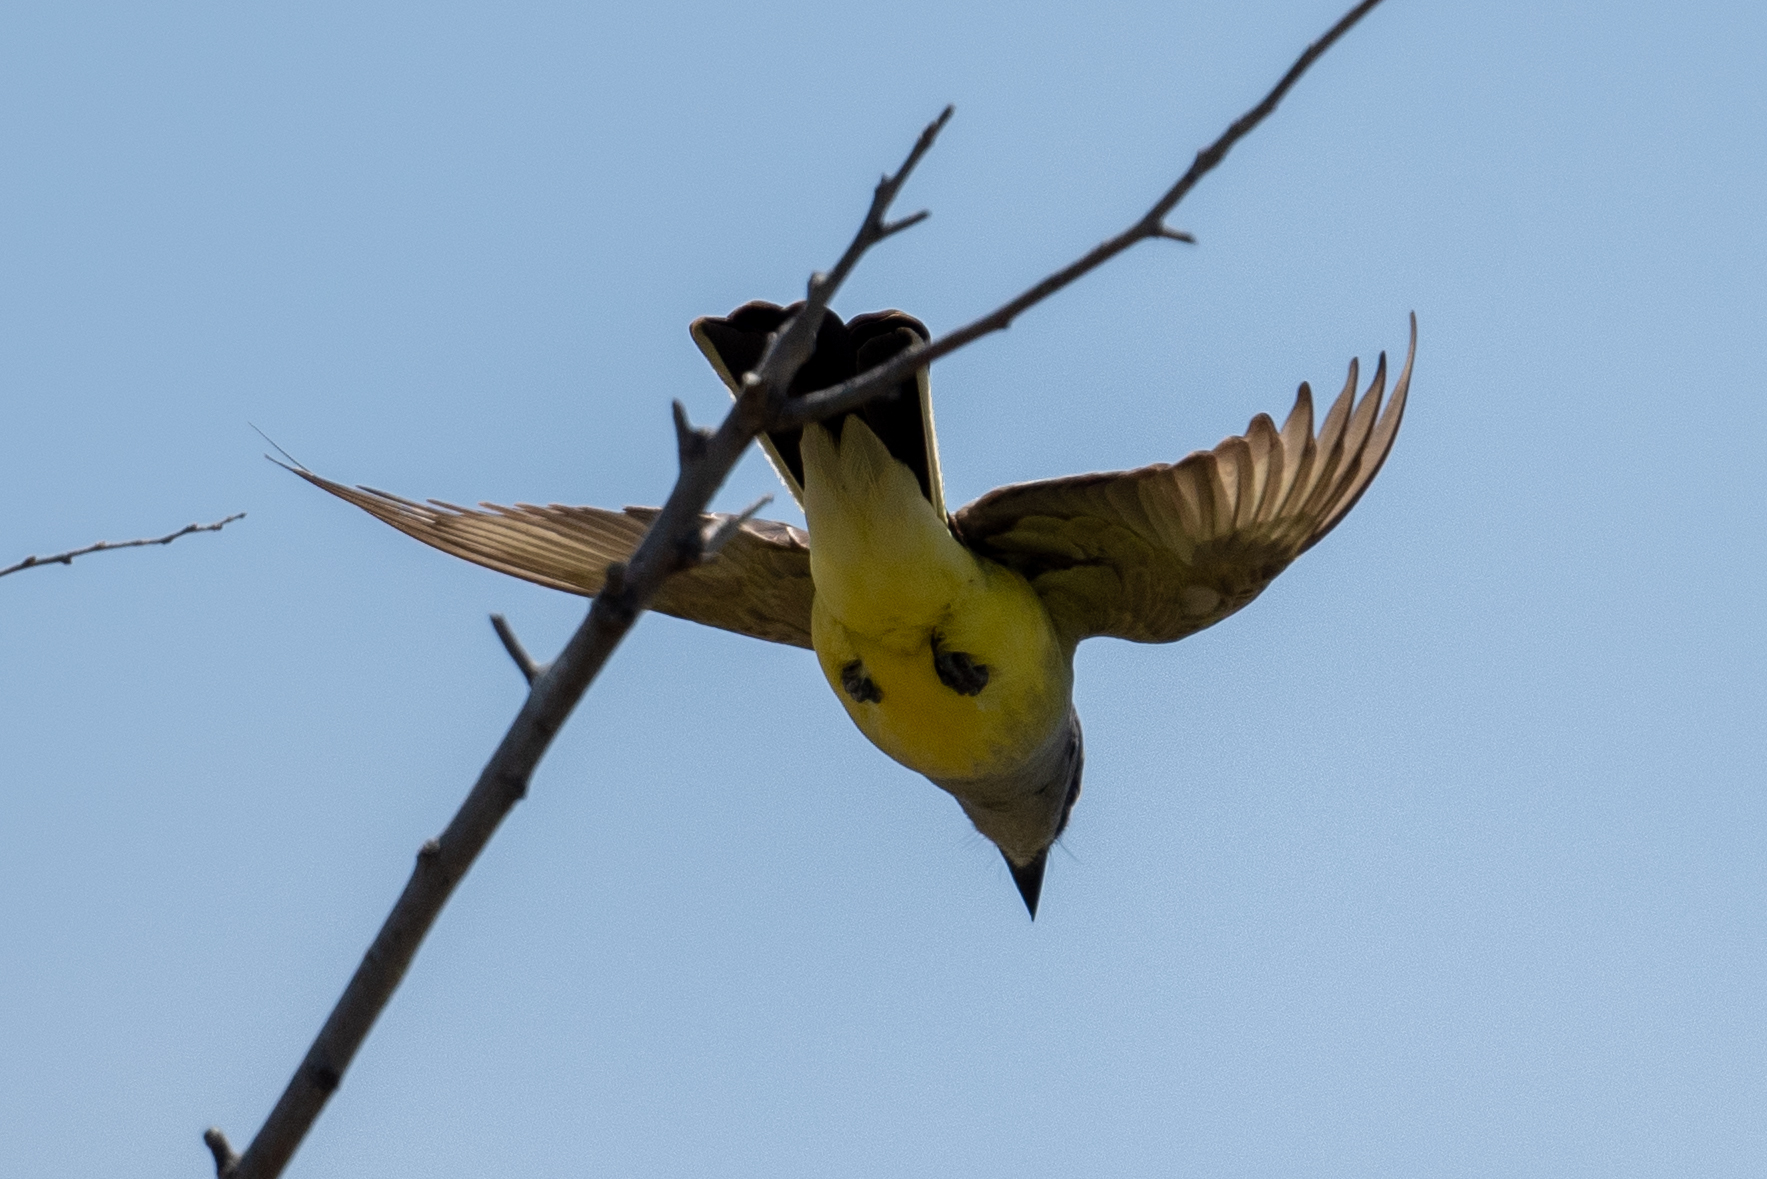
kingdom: Animalia
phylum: Chordata
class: Aves
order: Passeriformes
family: Tyrannidae
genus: Tyrannus
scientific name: Tyrannus verticalis
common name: Western kingbird
